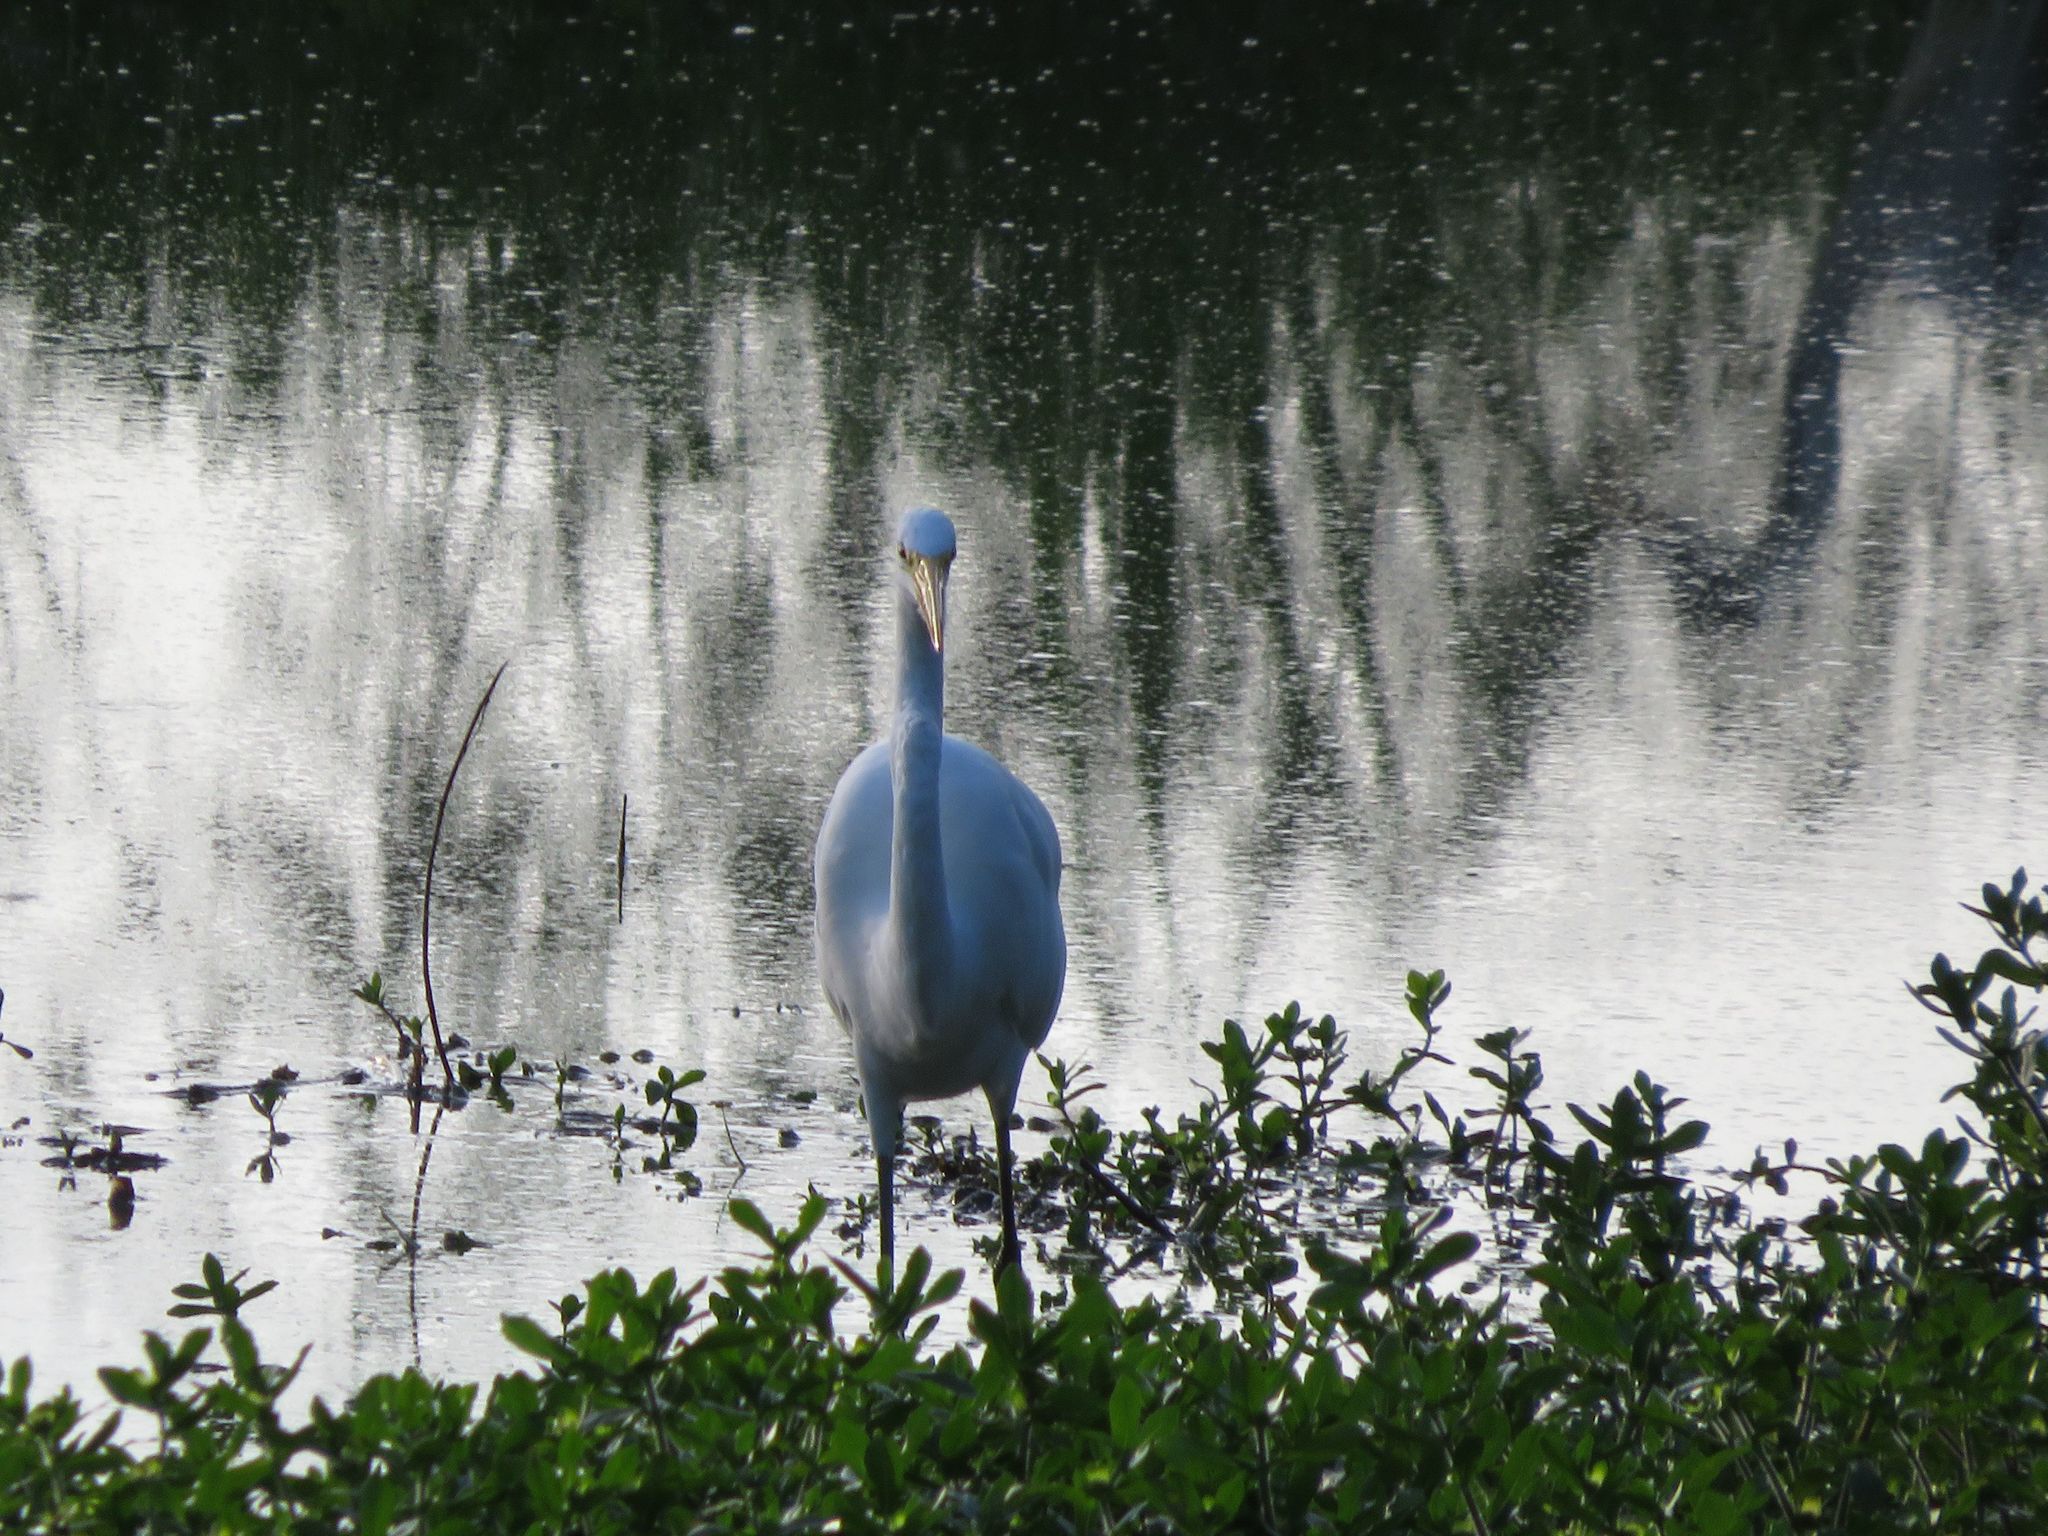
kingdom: Animalia
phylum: Chordata
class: Aves
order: Pelecaniformes
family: Ardeidae
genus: Ardea
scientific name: Ardea alba
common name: Great egret
